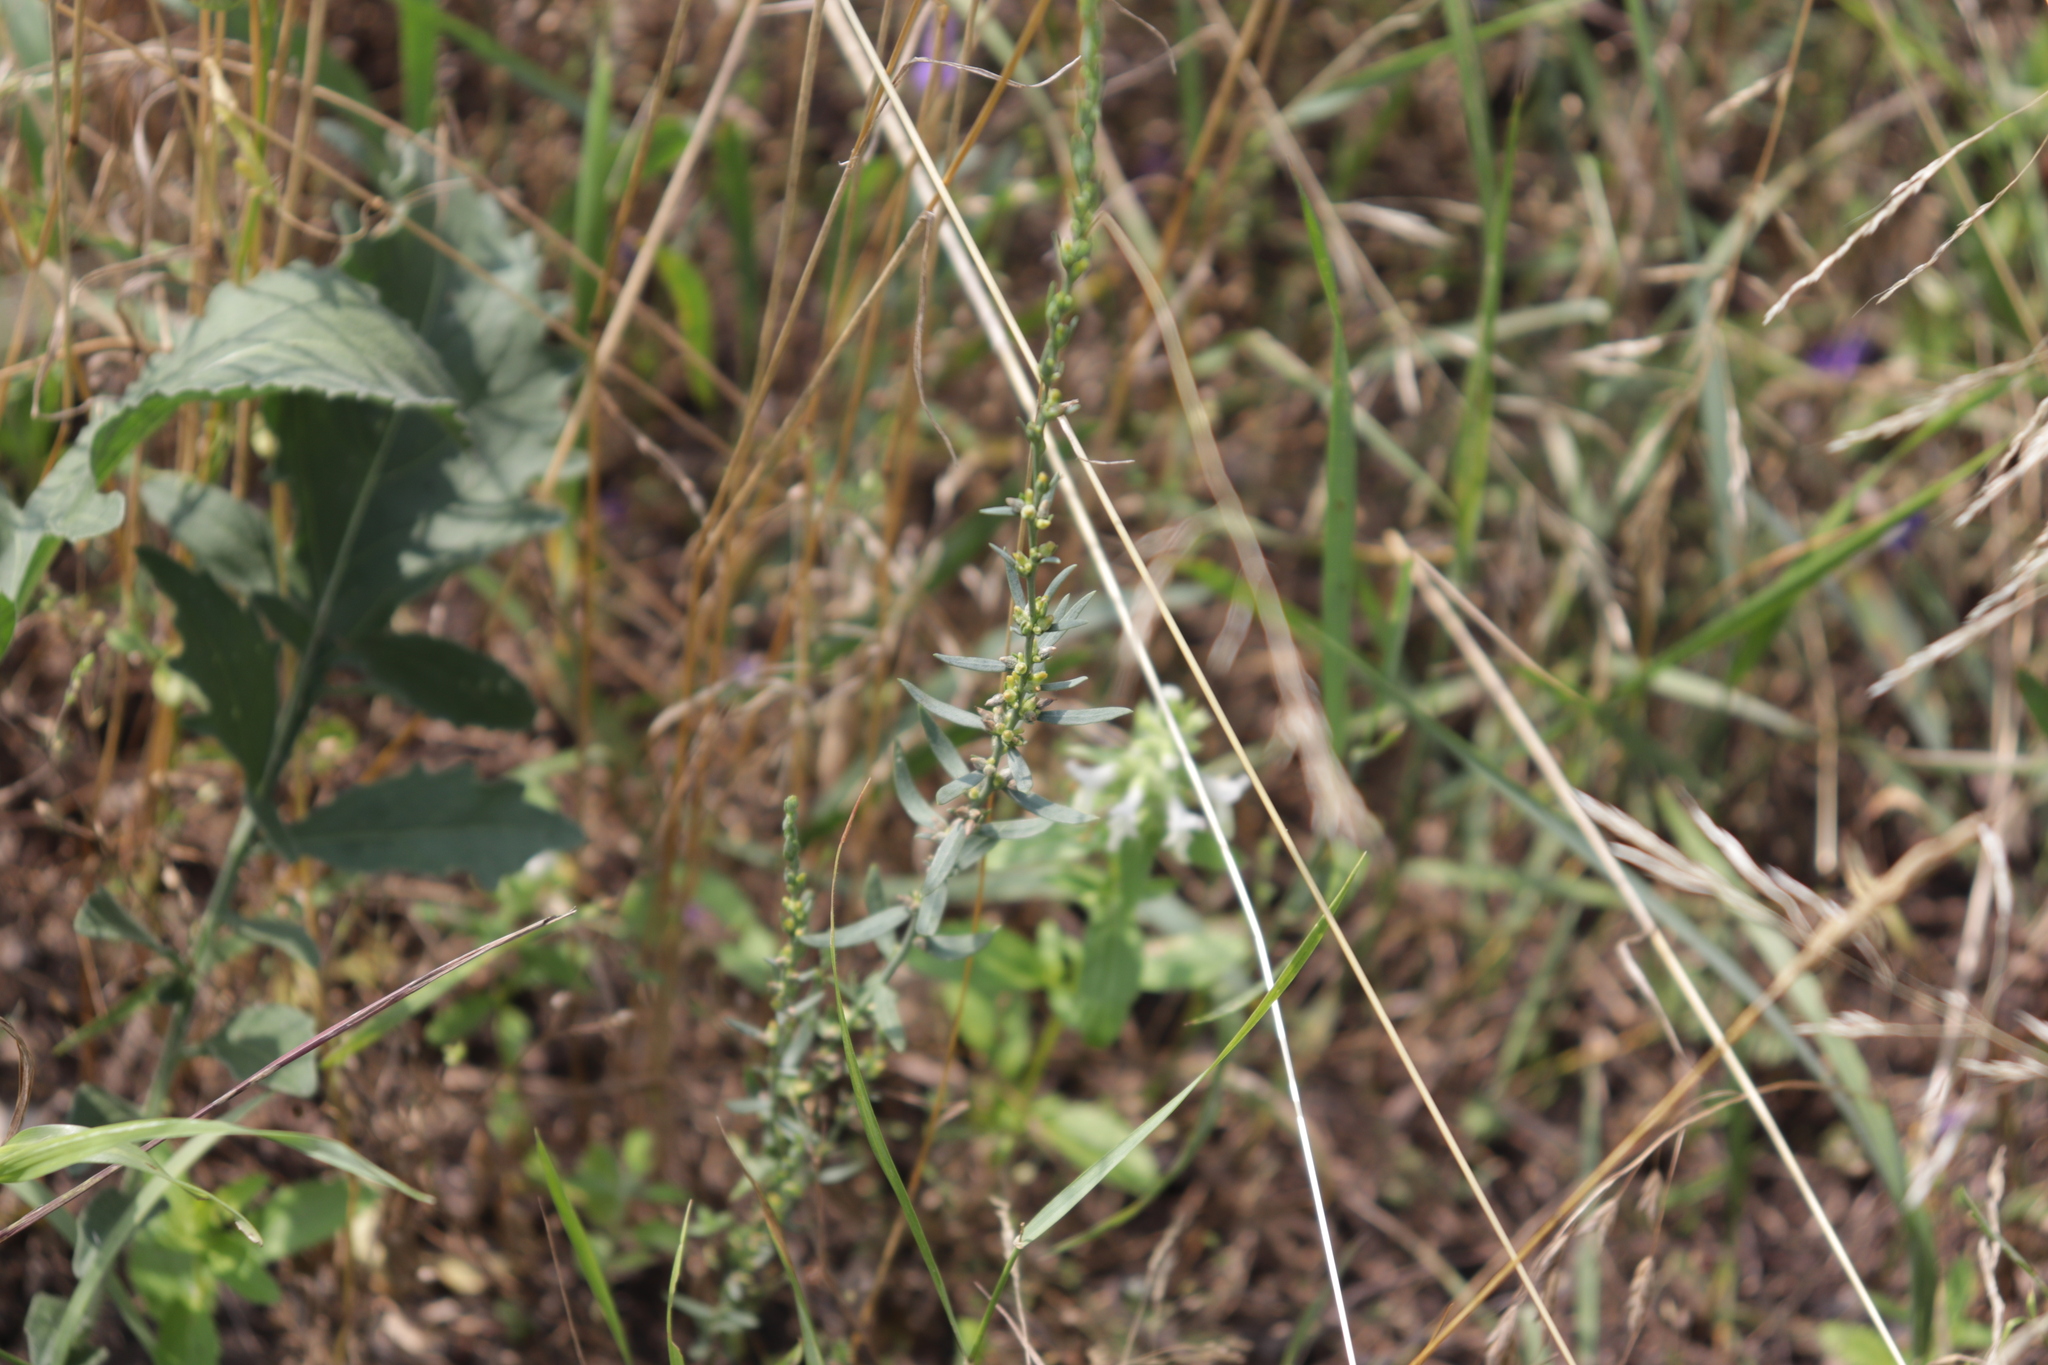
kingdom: Plantae
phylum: Tracheophyta
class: Magnoliopsida
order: Malvales
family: Thymelaeaceae
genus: Thymelaea
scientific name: Thymelaea passerina
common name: Annual thymelaea
